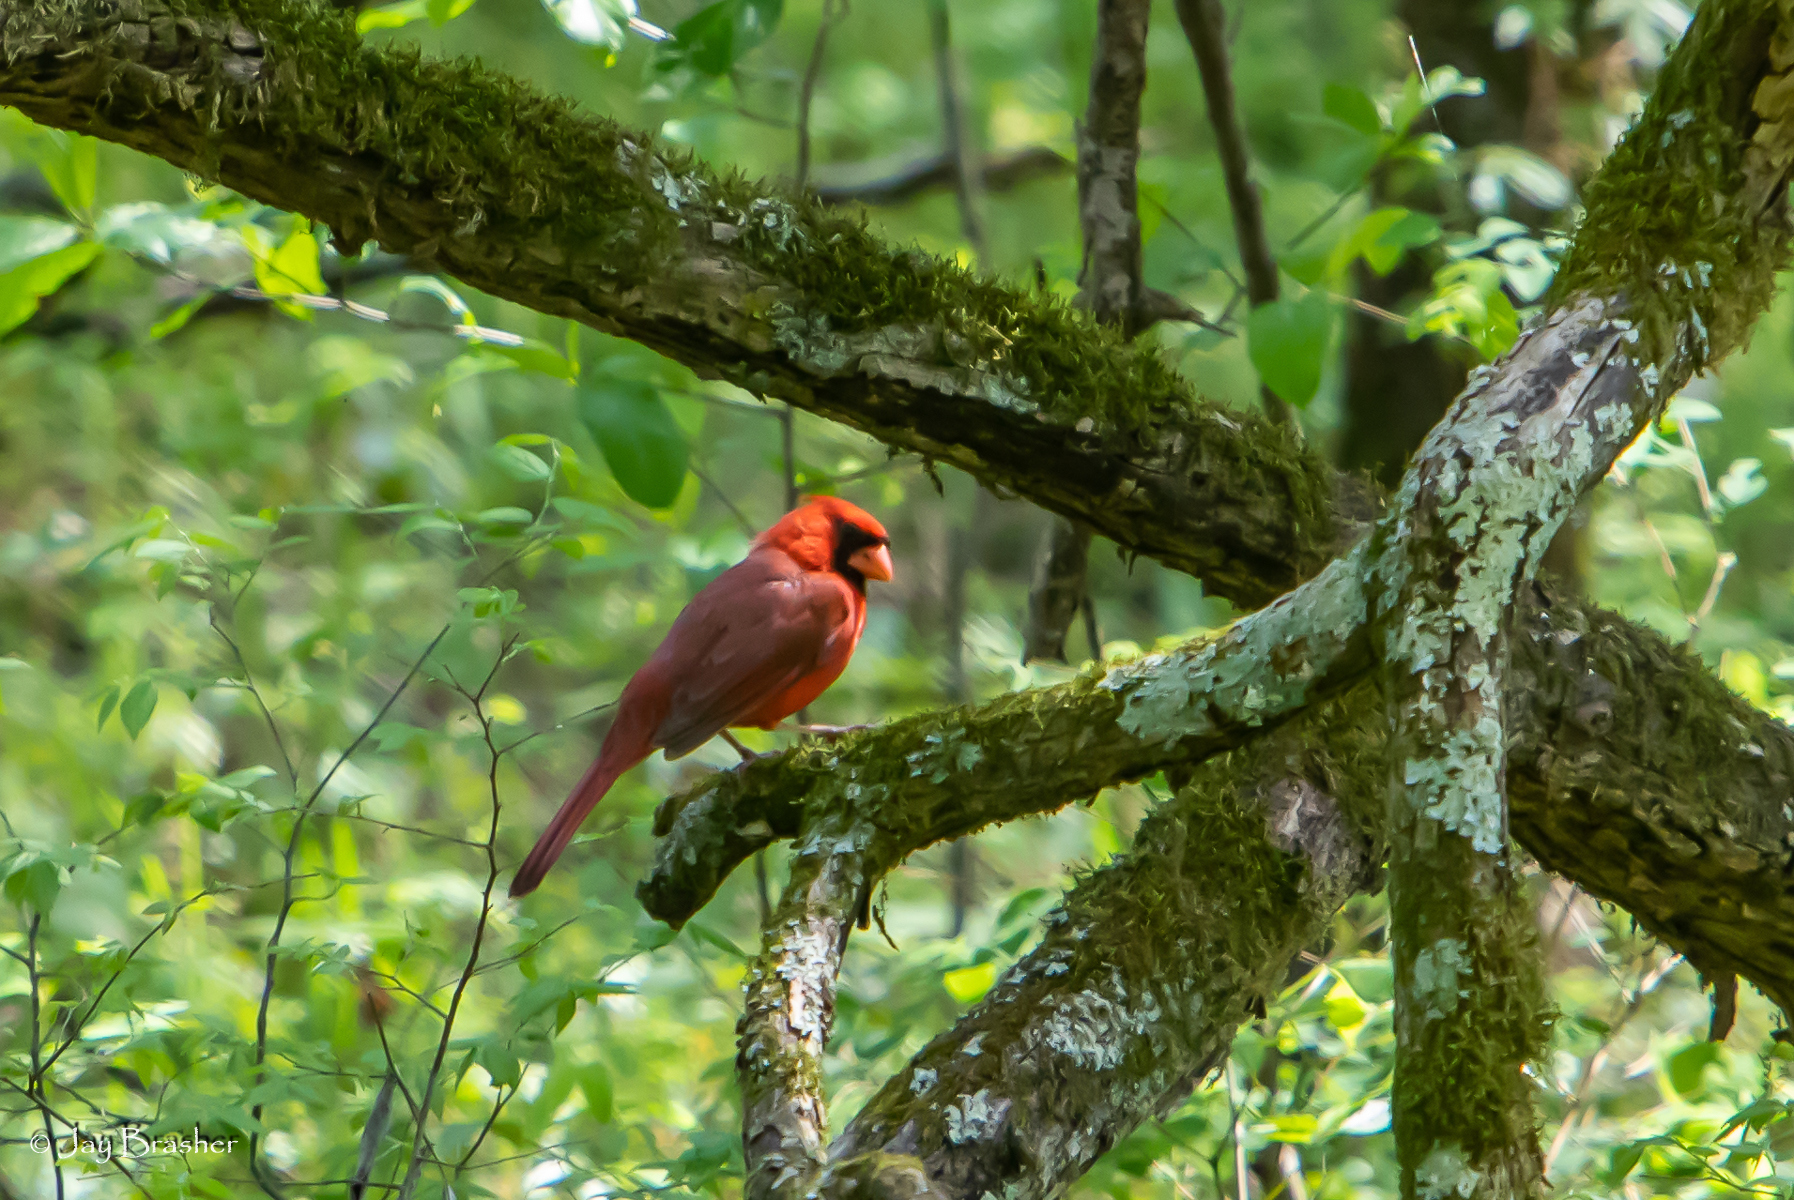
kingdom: Animalia
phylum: Chordata
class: Aves
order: Passeriformes
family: Cardinalidae
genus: Cardinalis
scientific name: Cardinalis cardinalis
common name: Northern cardinal
